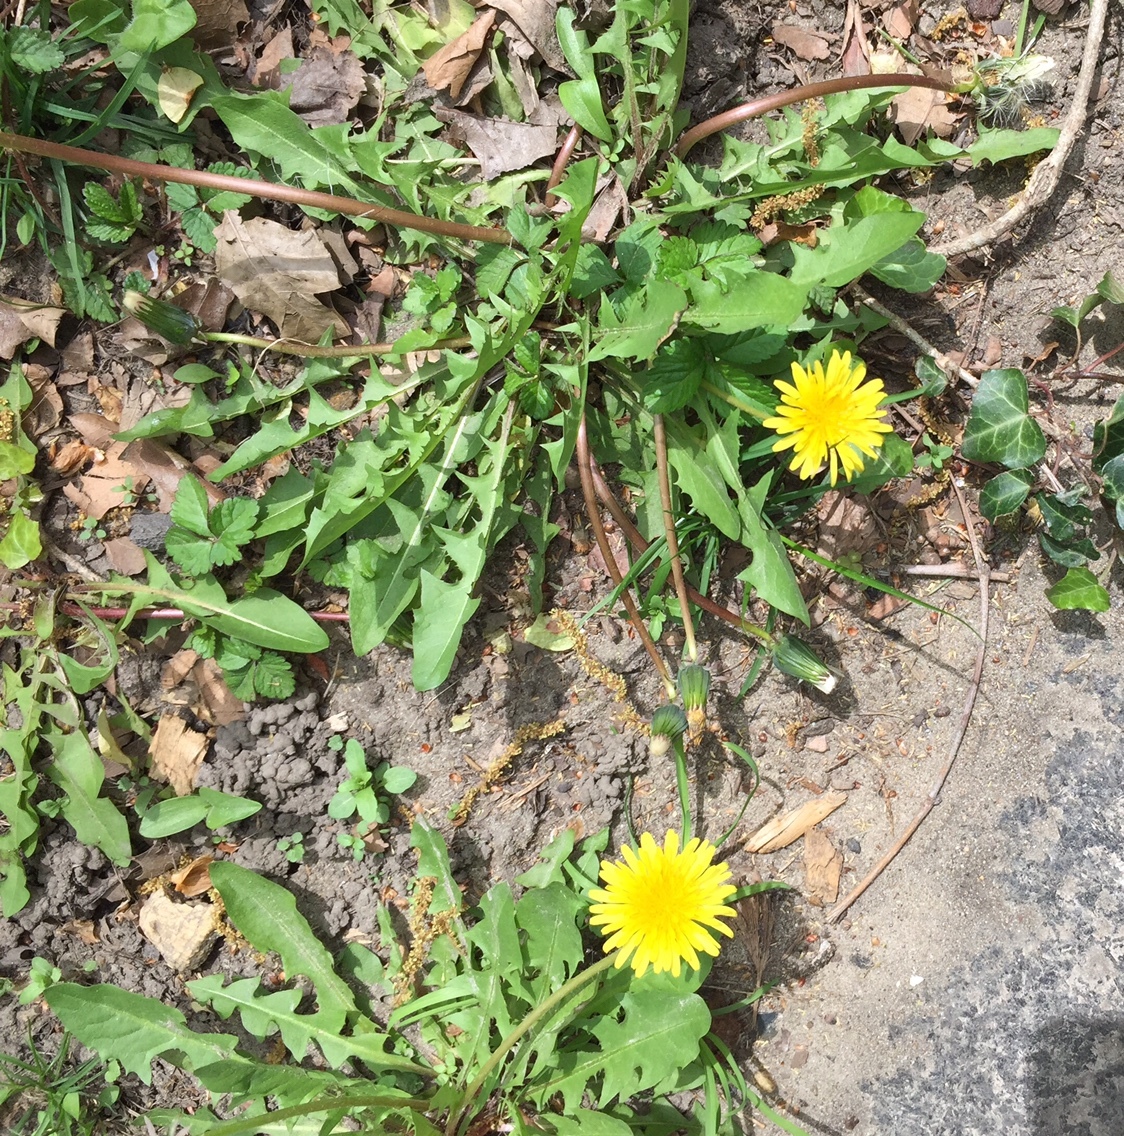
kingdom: Plantae
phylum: Tracheophyta
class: Magnoliopsida
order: Asterales
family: Asteraceae
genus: Taraxacum
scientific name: Taraxacum officinale
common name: Common dandelion
